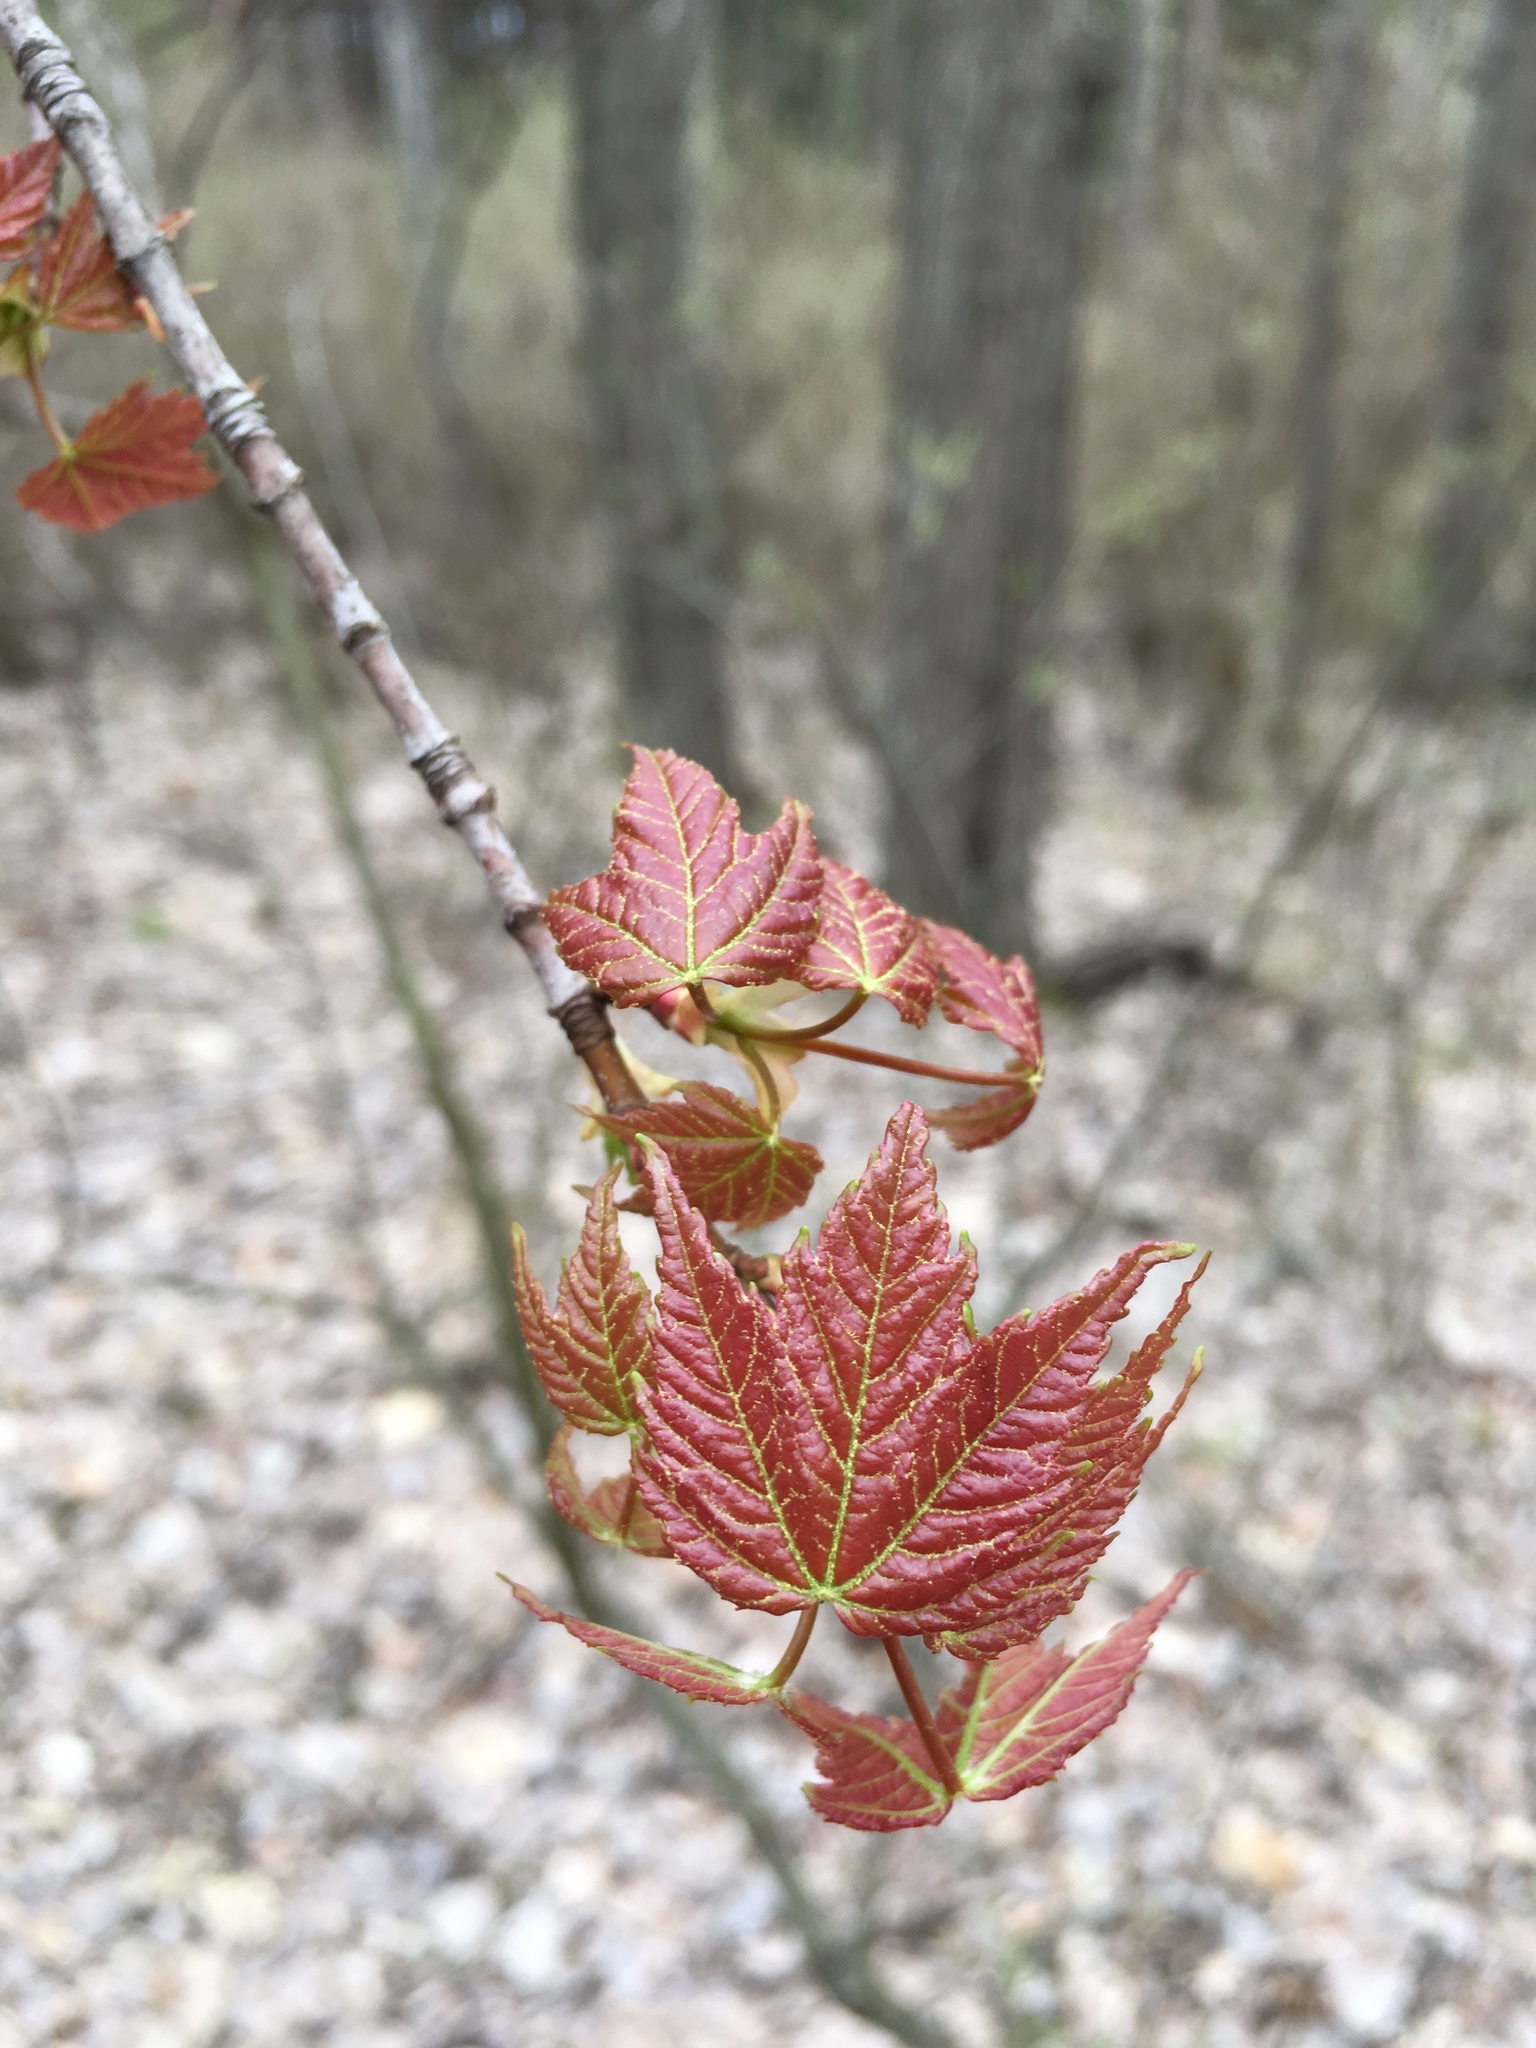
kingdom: Plantae
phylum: Tracheophyta
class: Magnoliopsida
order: Sapindales
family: Sapindaceae
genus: Acer
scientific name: Acer rubrum
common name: Red maple
